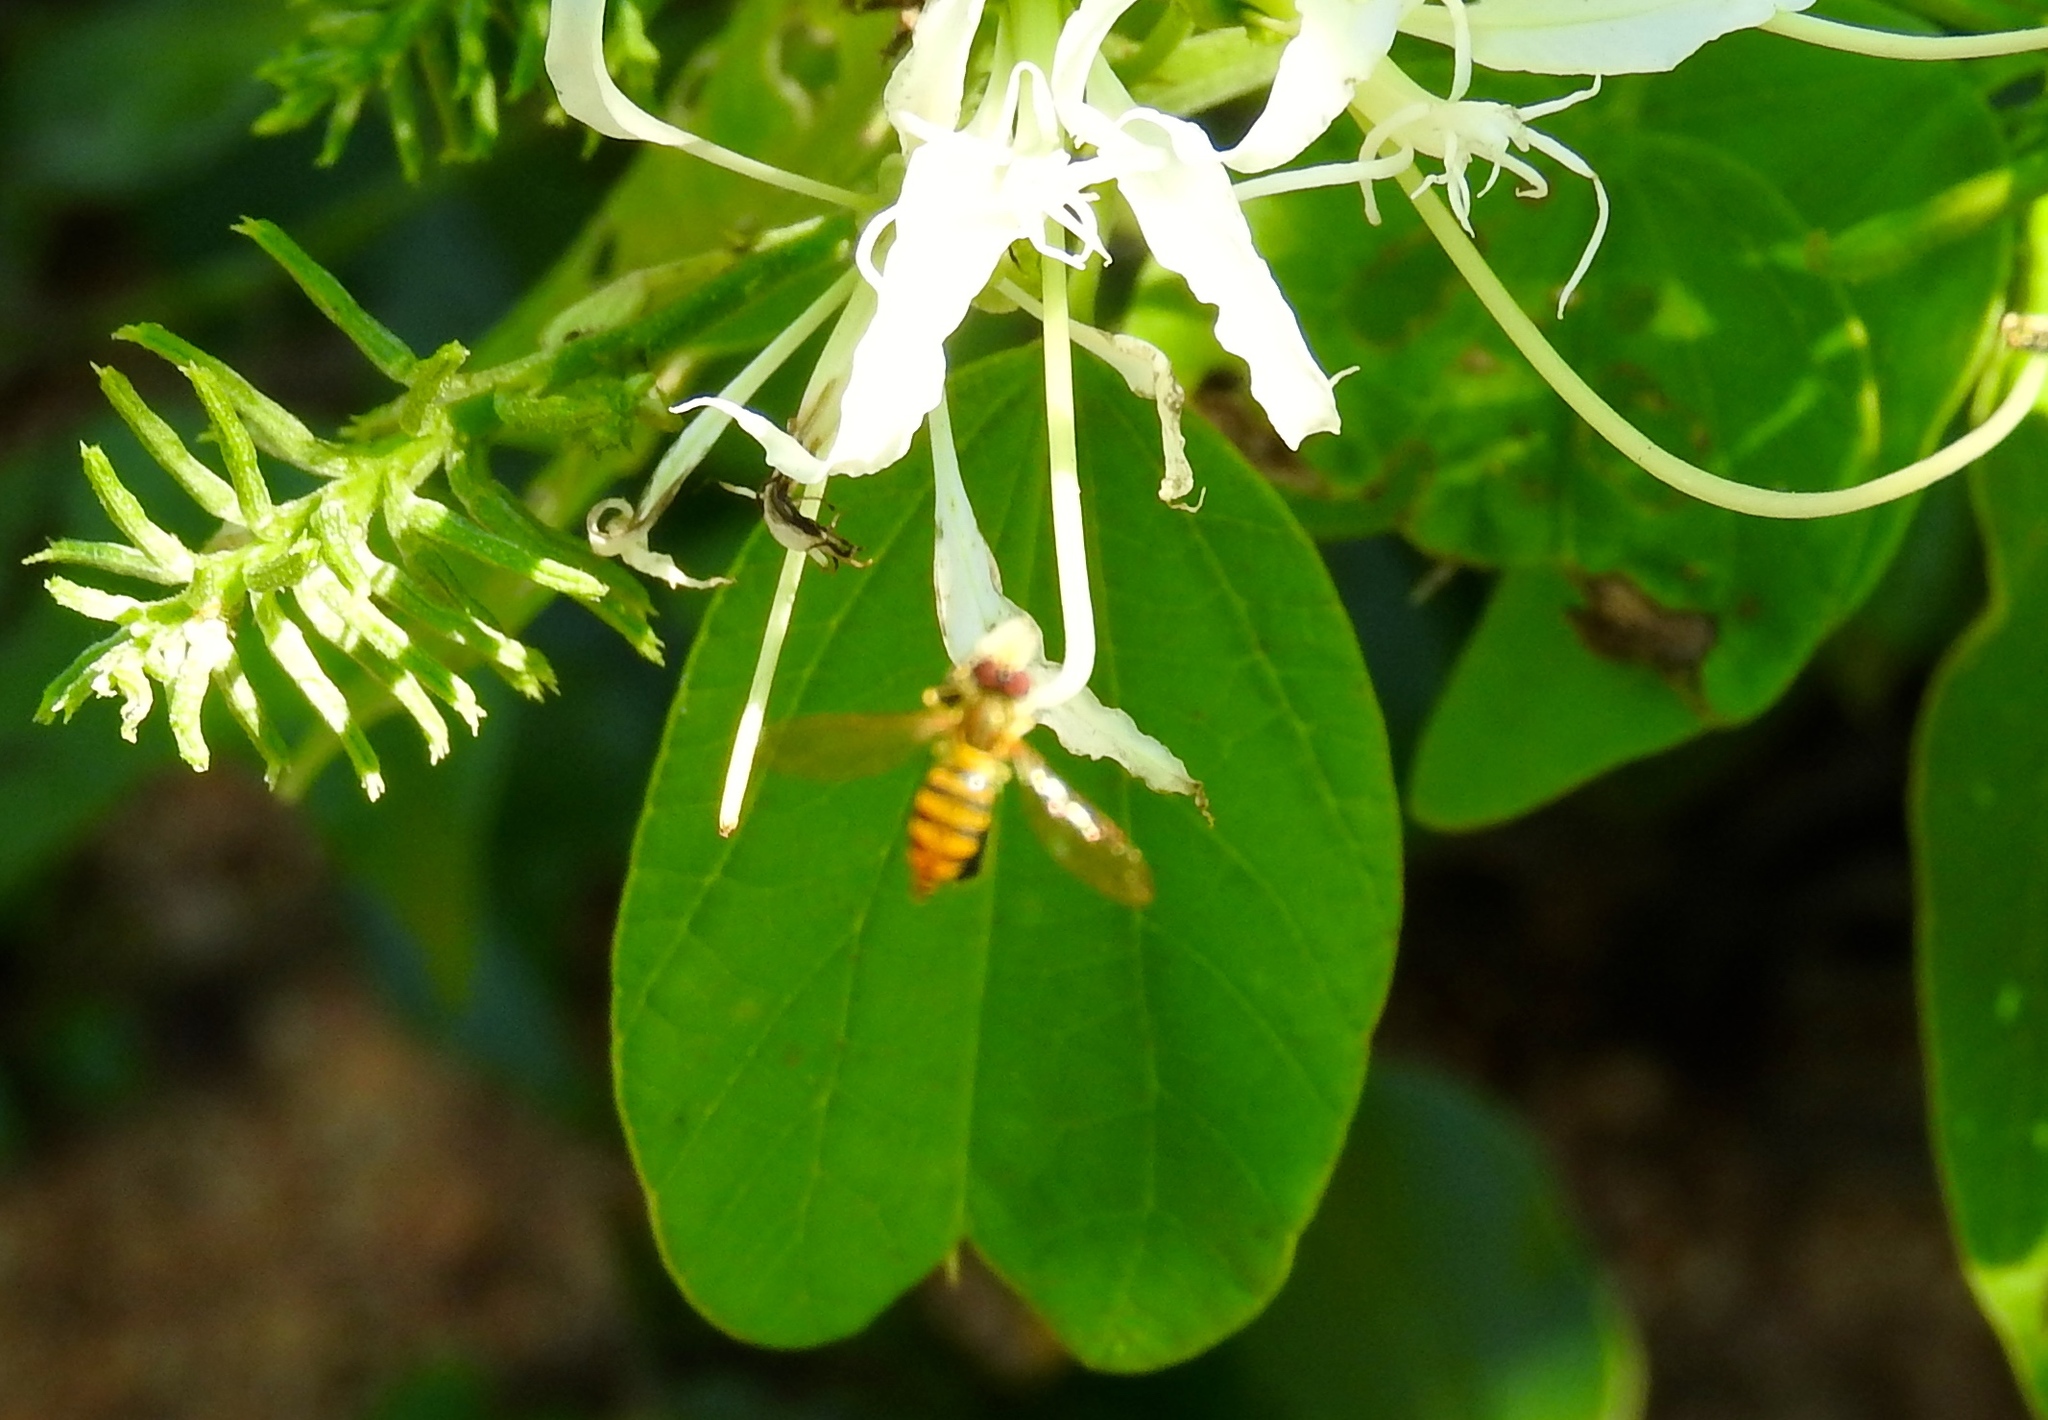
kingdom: Animalia
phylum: Arthropoda
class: Insecta
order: Diptera
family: Syrphidae
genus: Toxomerus
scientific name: Toxomerus
